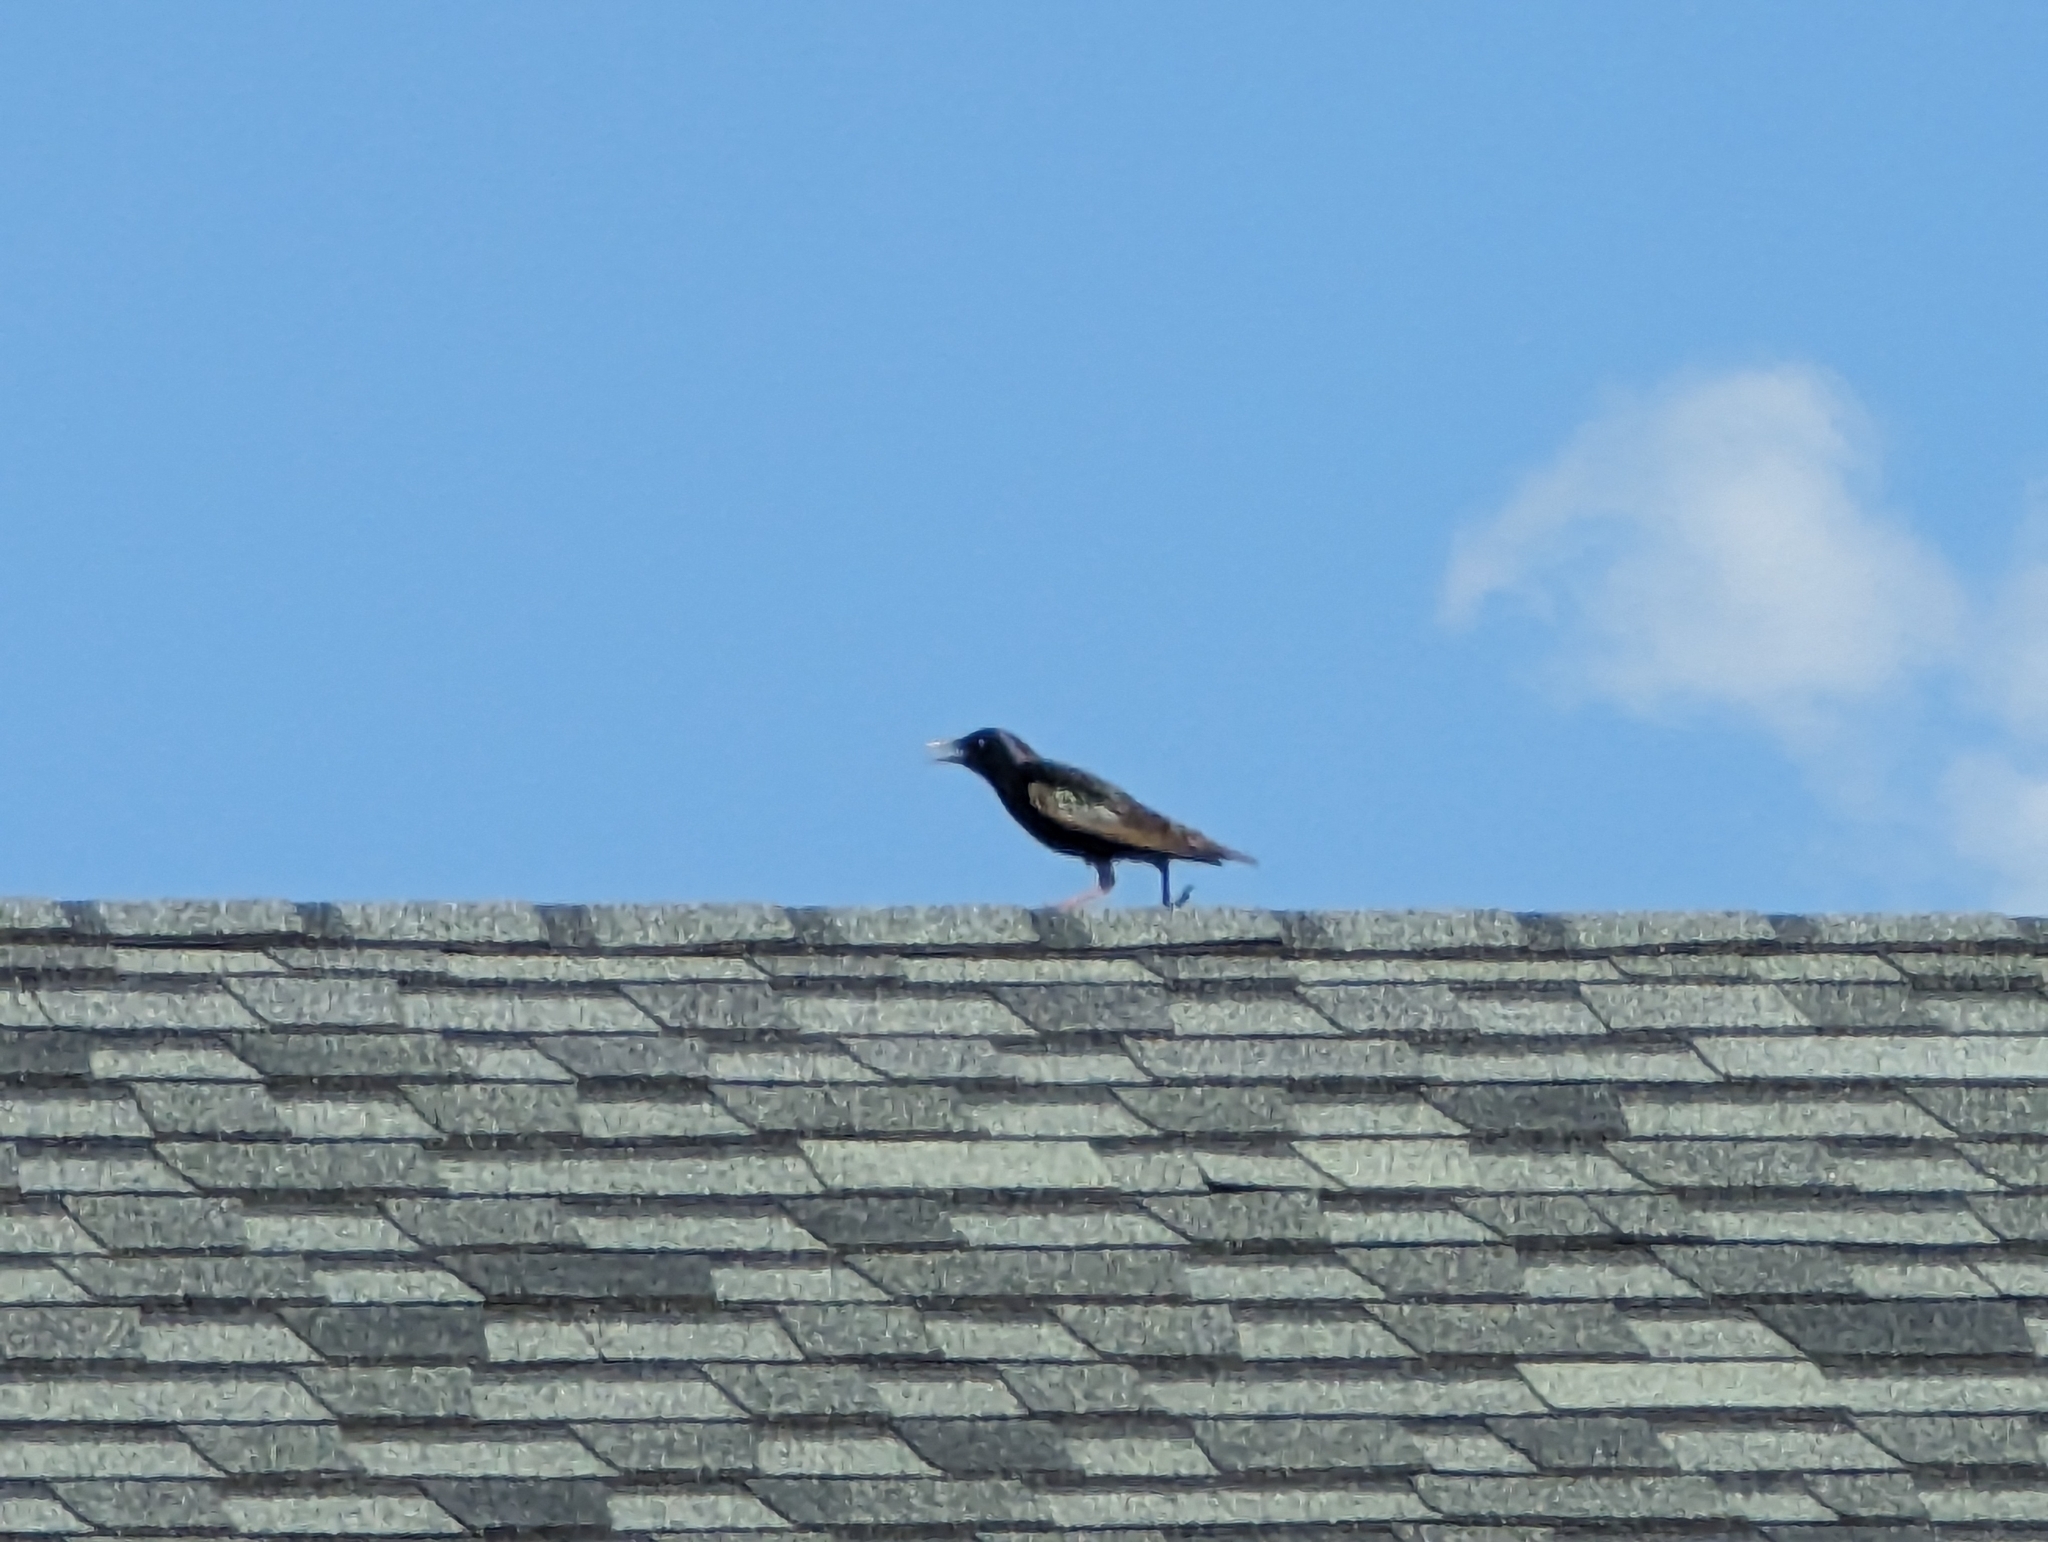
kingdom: Animalia
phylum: Chordata
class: Aves
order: Passeriformes
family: Sturnidae
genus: Sturnus
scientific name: Sturnus vulgaris
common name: Common starling
